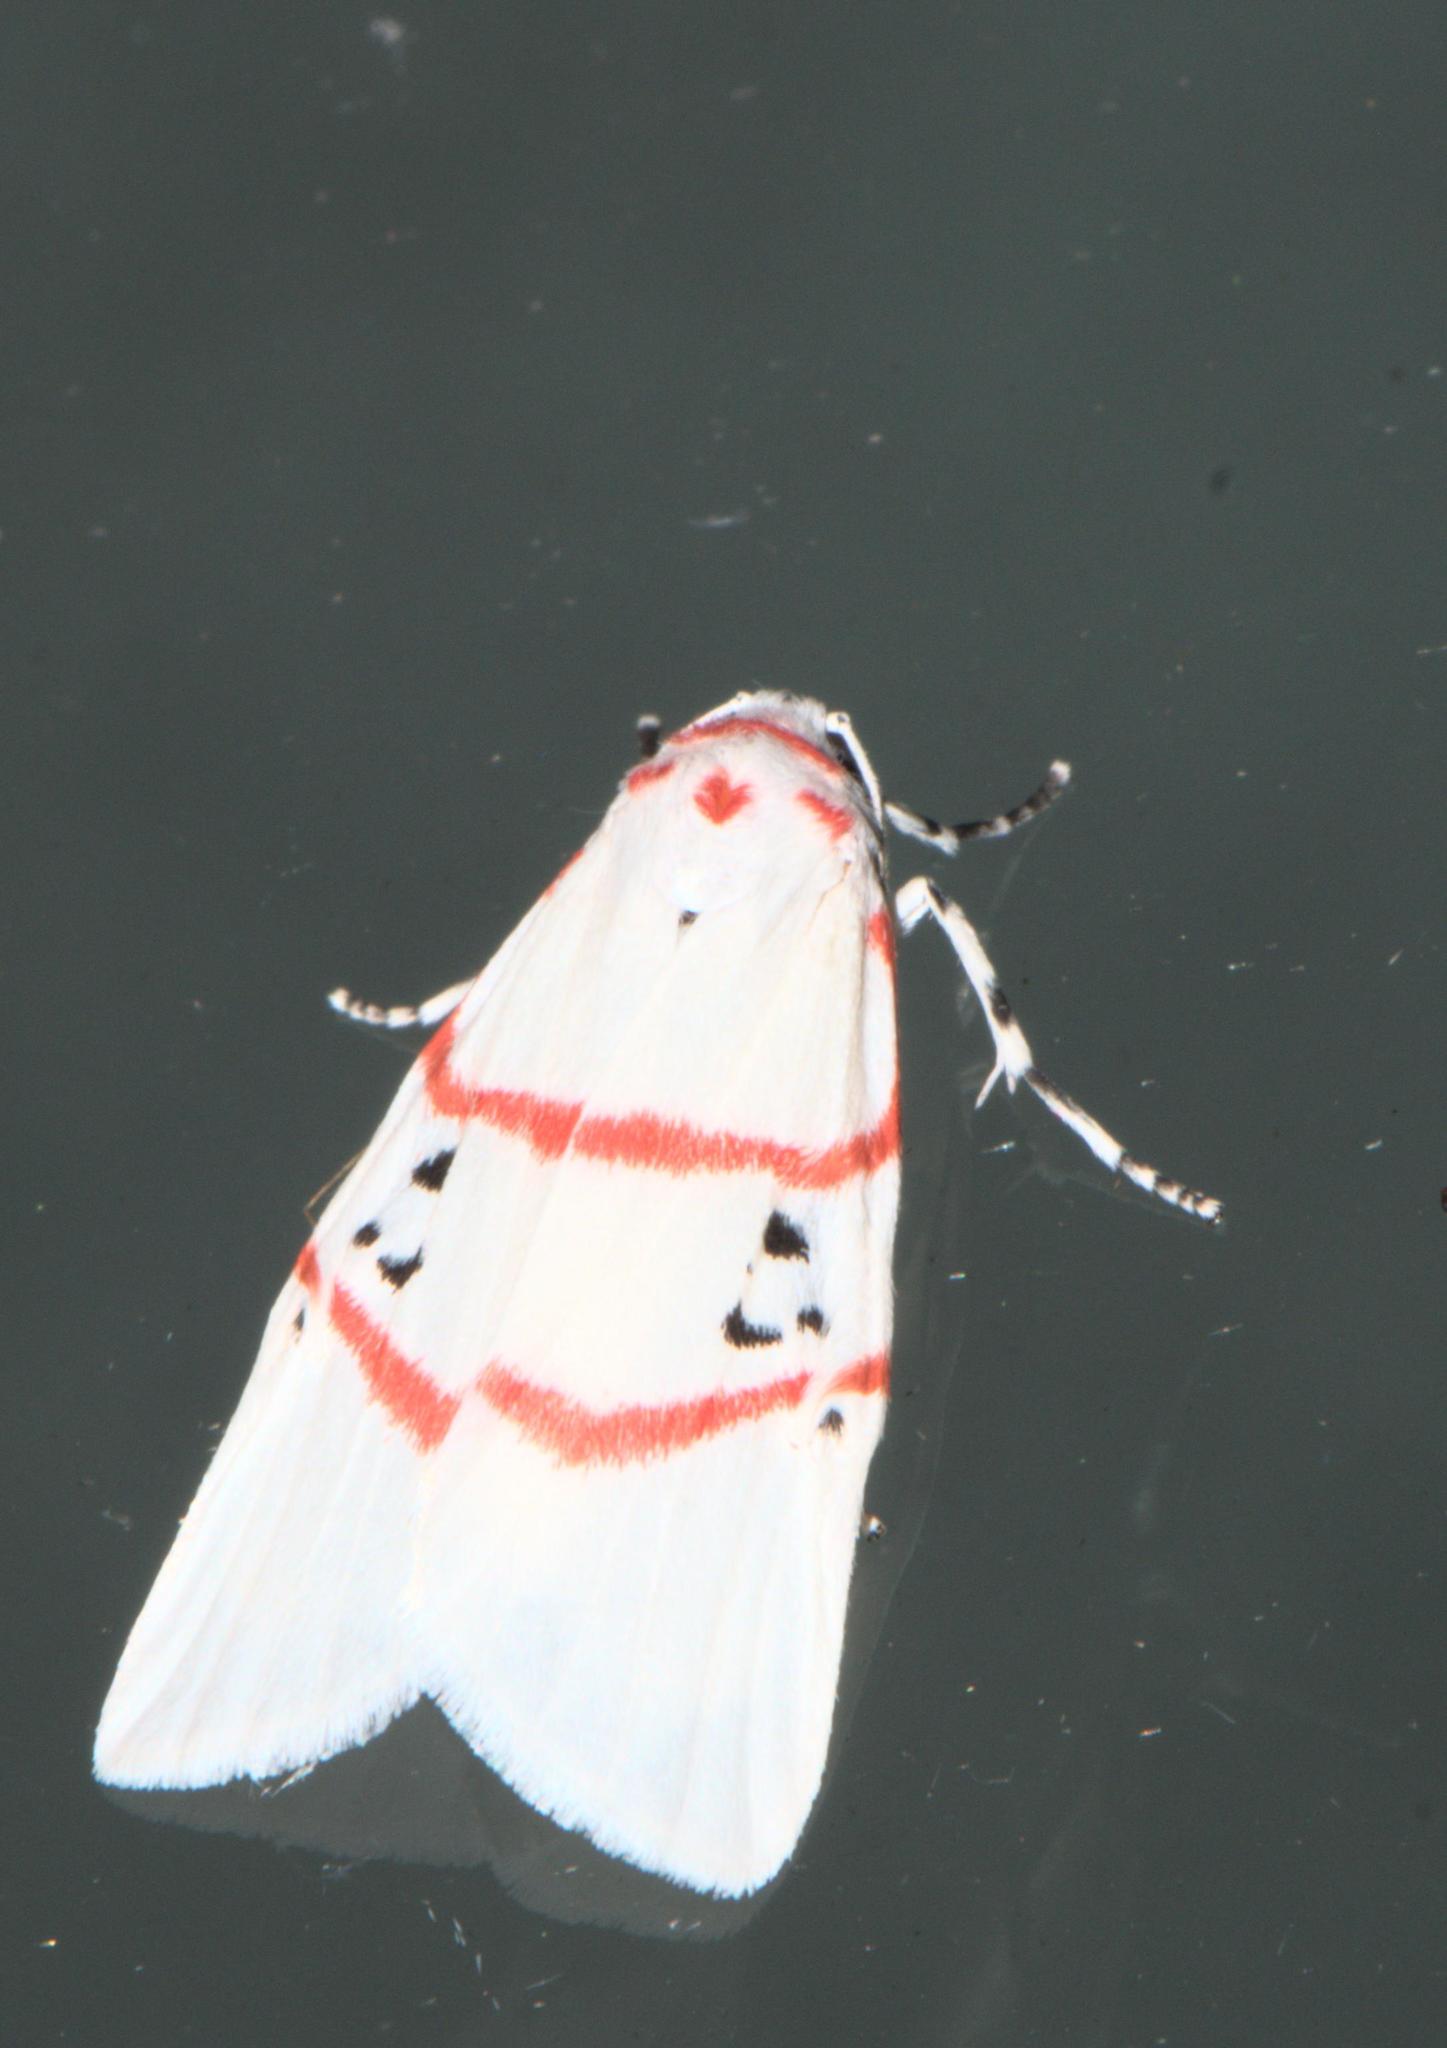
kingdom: Animalia
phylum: Arthropoda
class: Insecta
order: Lepidoptera
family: Erebidae
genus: Cyana
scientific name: Cyana adita
